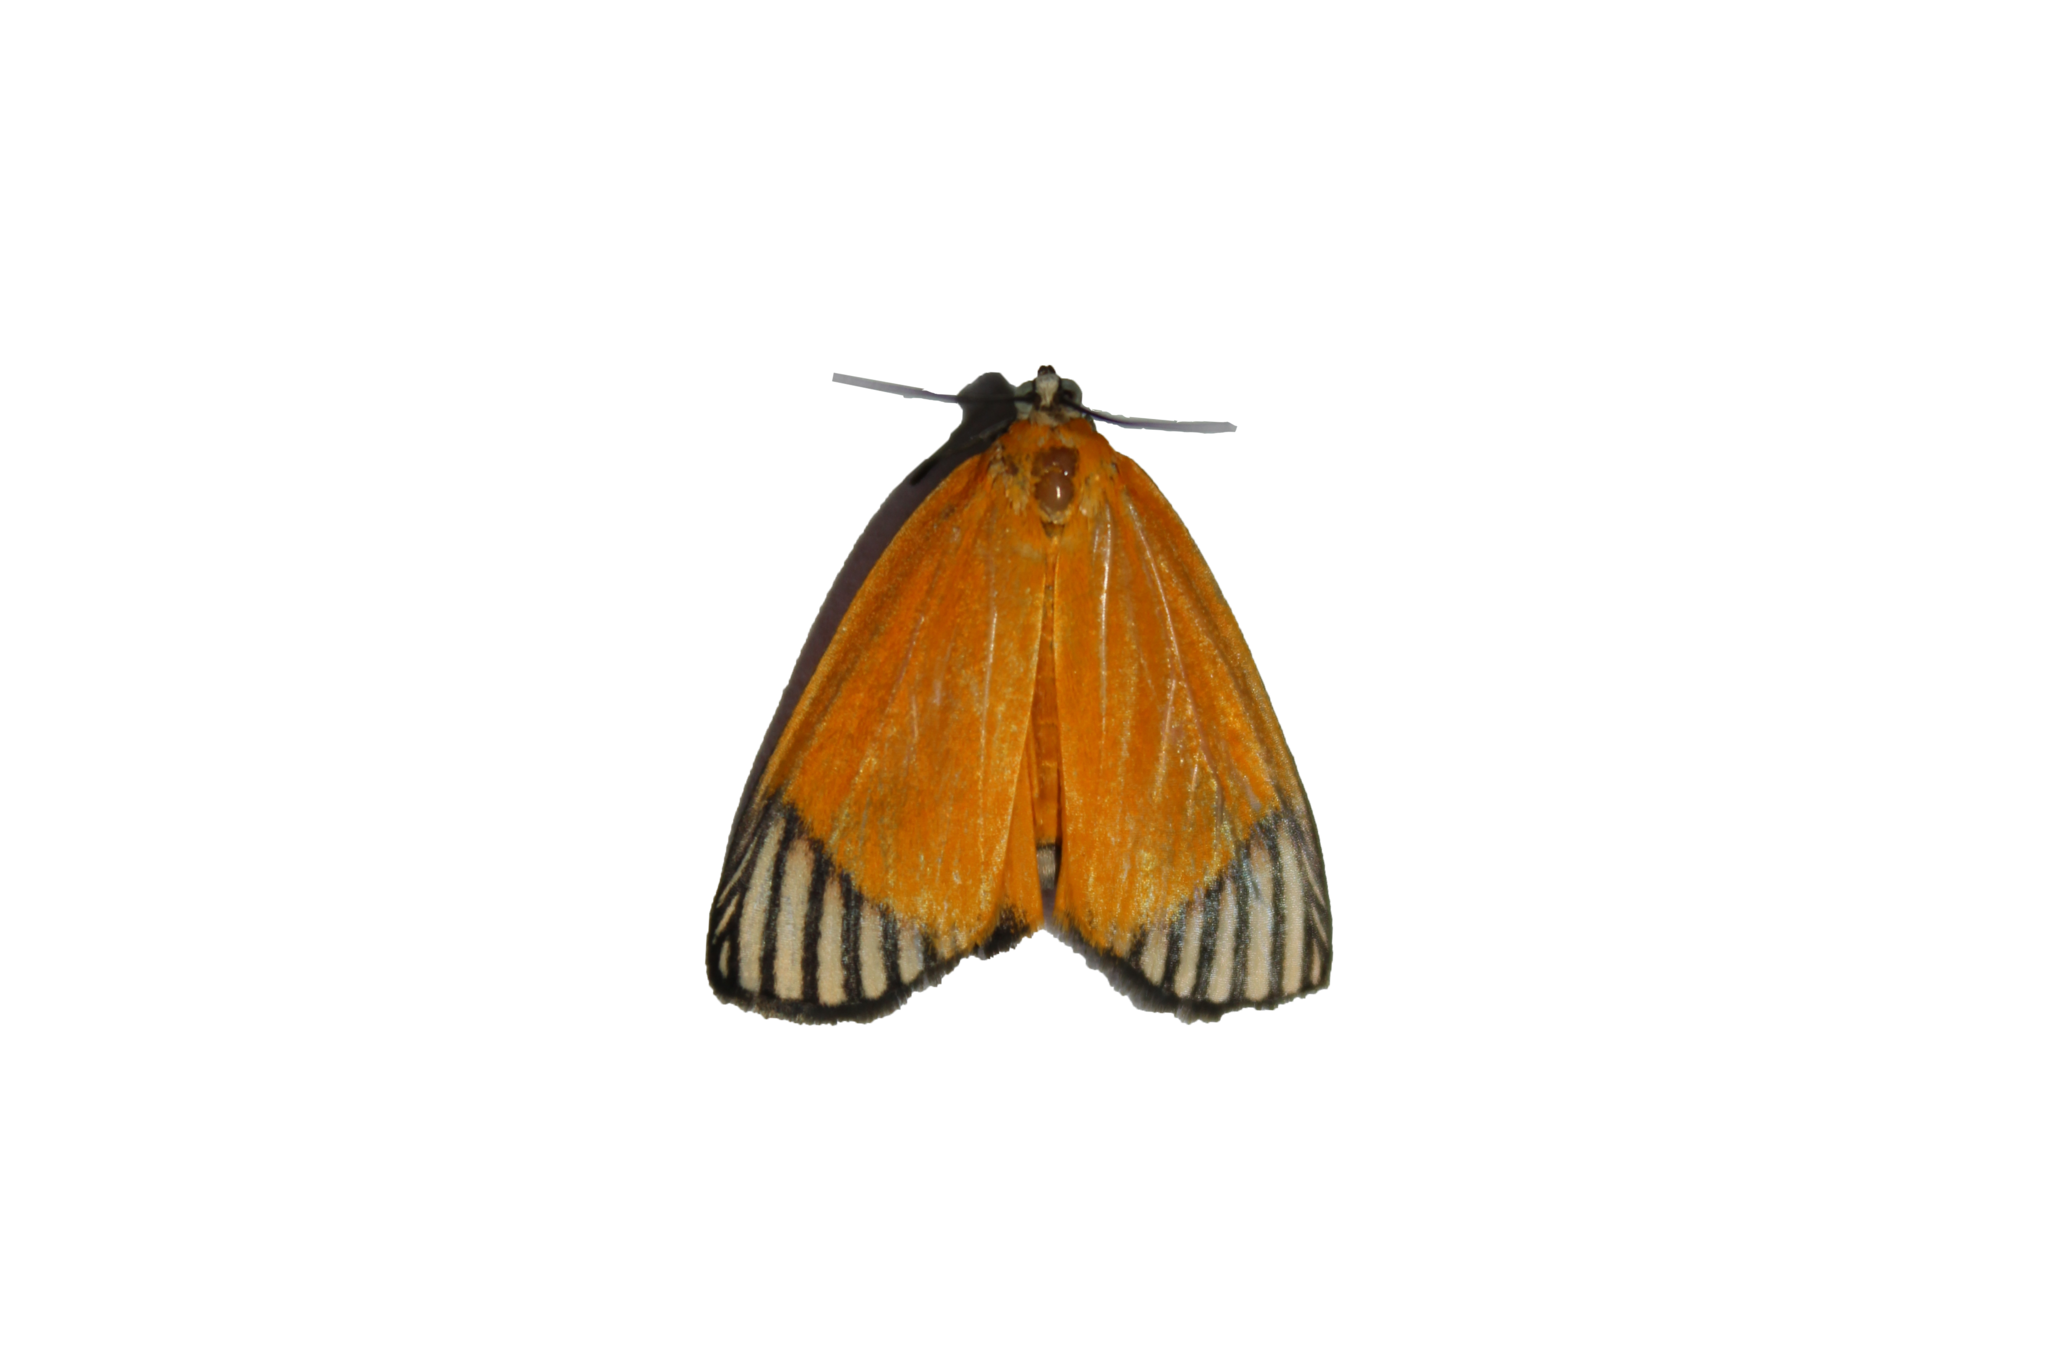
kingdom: Animalia
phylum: Arthropoda
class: Insecta
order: Lepidoptera
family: Pyralidae
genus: Mapeta
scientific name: Mapeta xanthomelas
